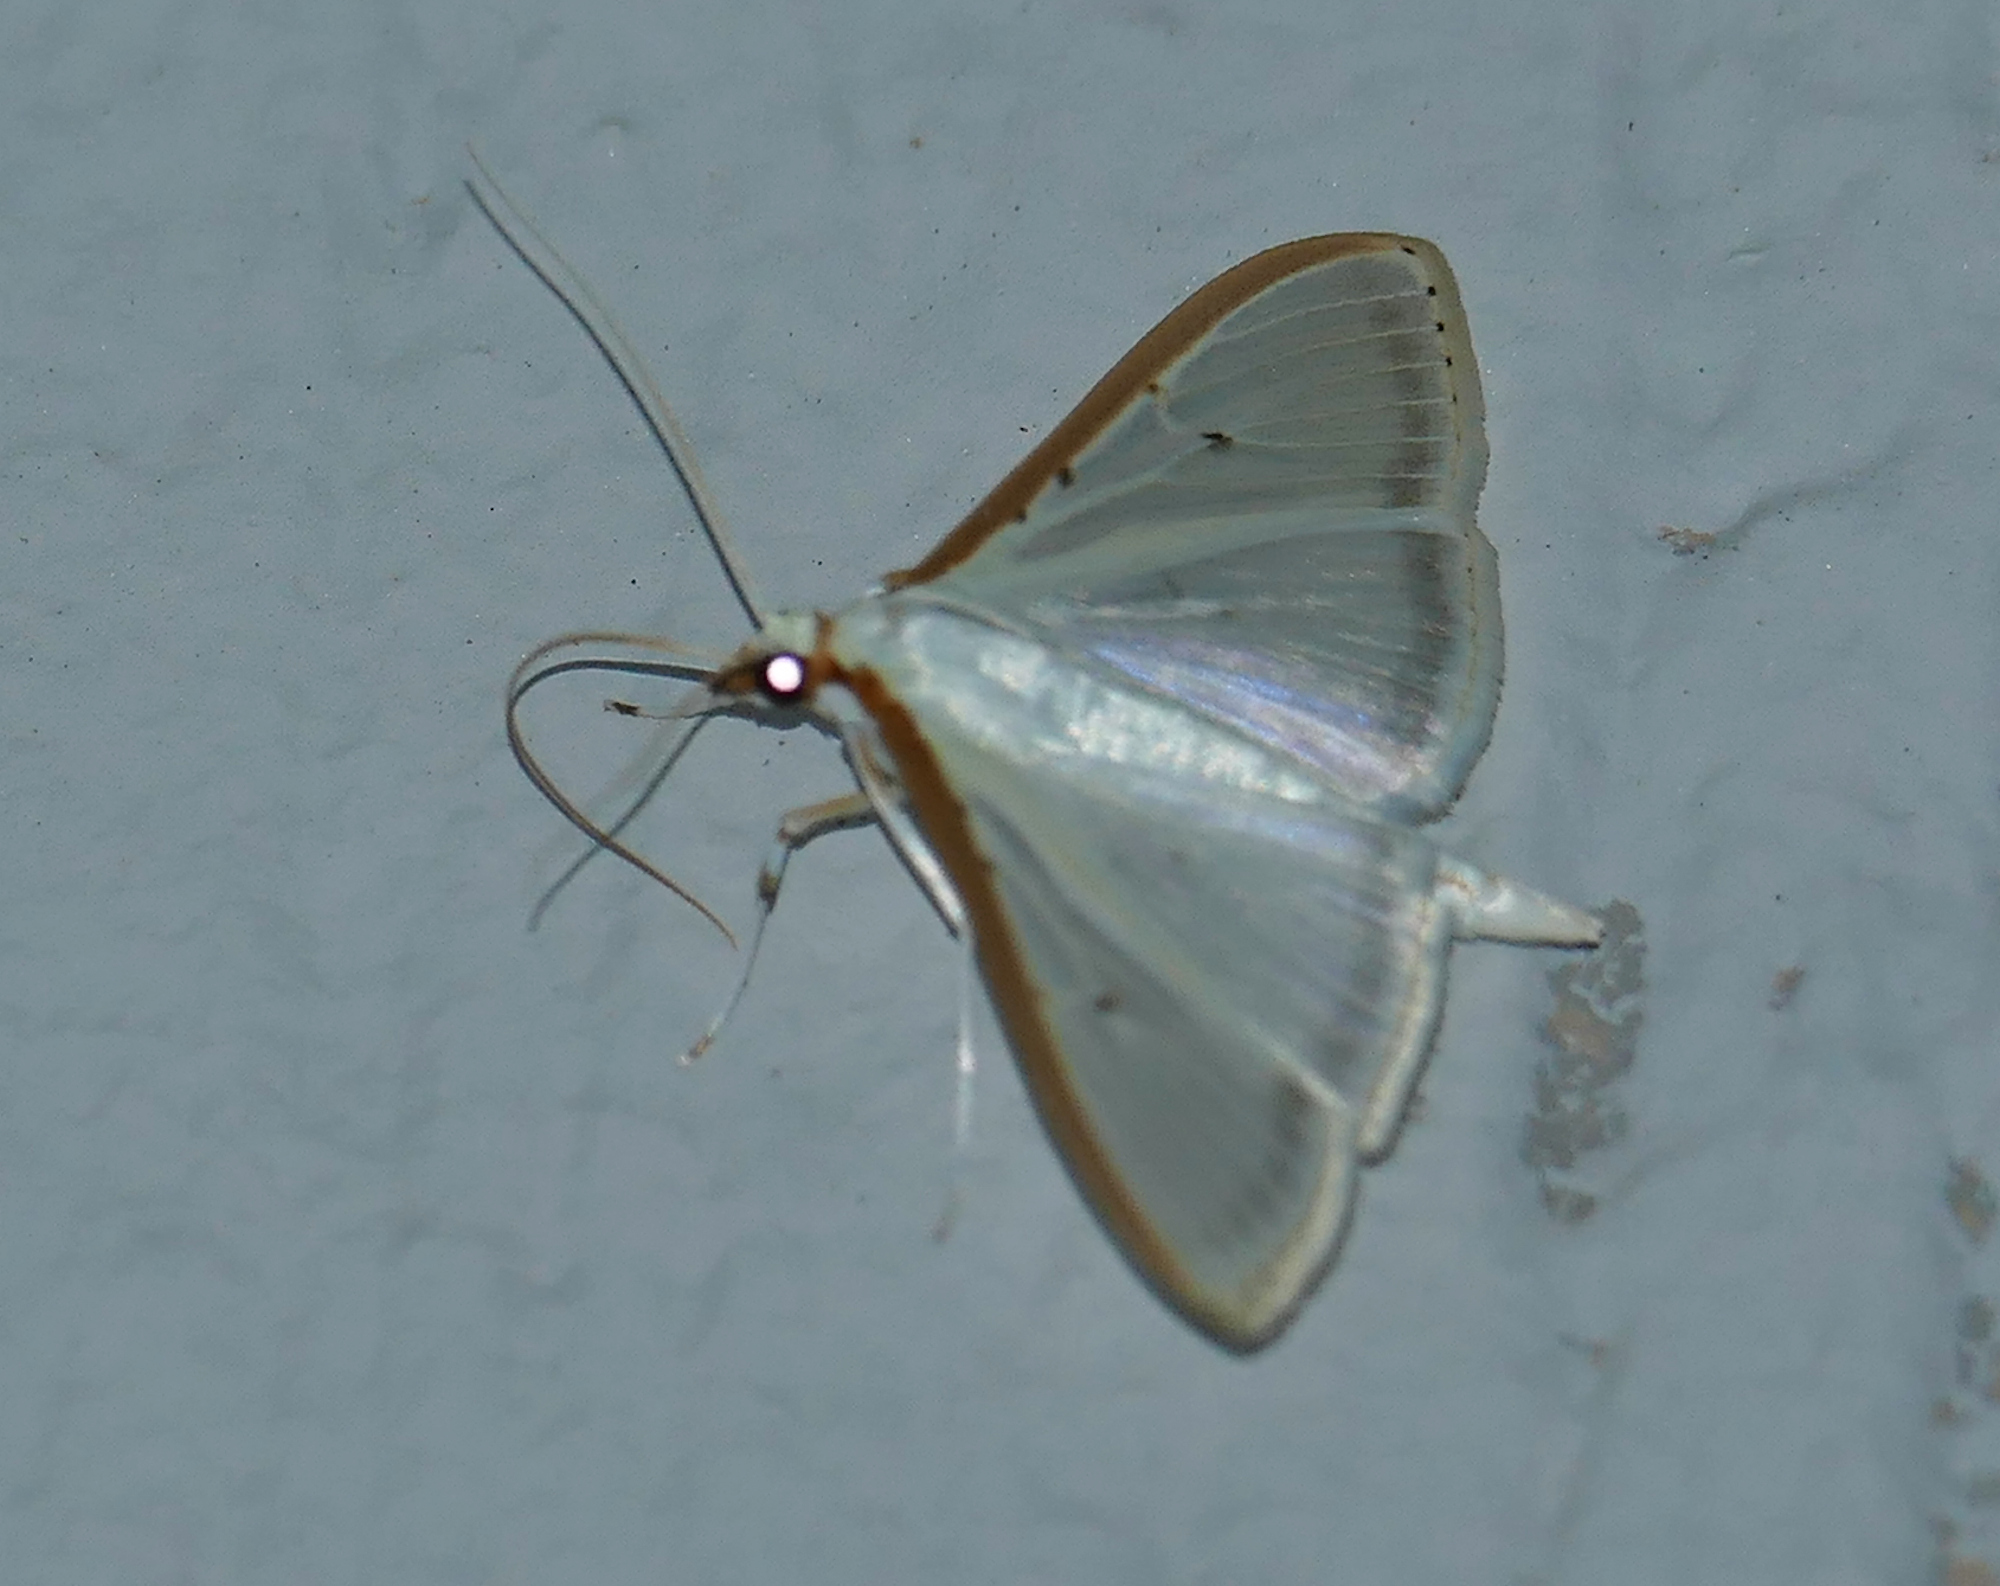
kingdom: Animalia
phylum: Arthropoda
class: Insecta
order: Lepidoptera
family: Crambidae
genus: Palpita
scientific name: Palpita quadristigmalis
